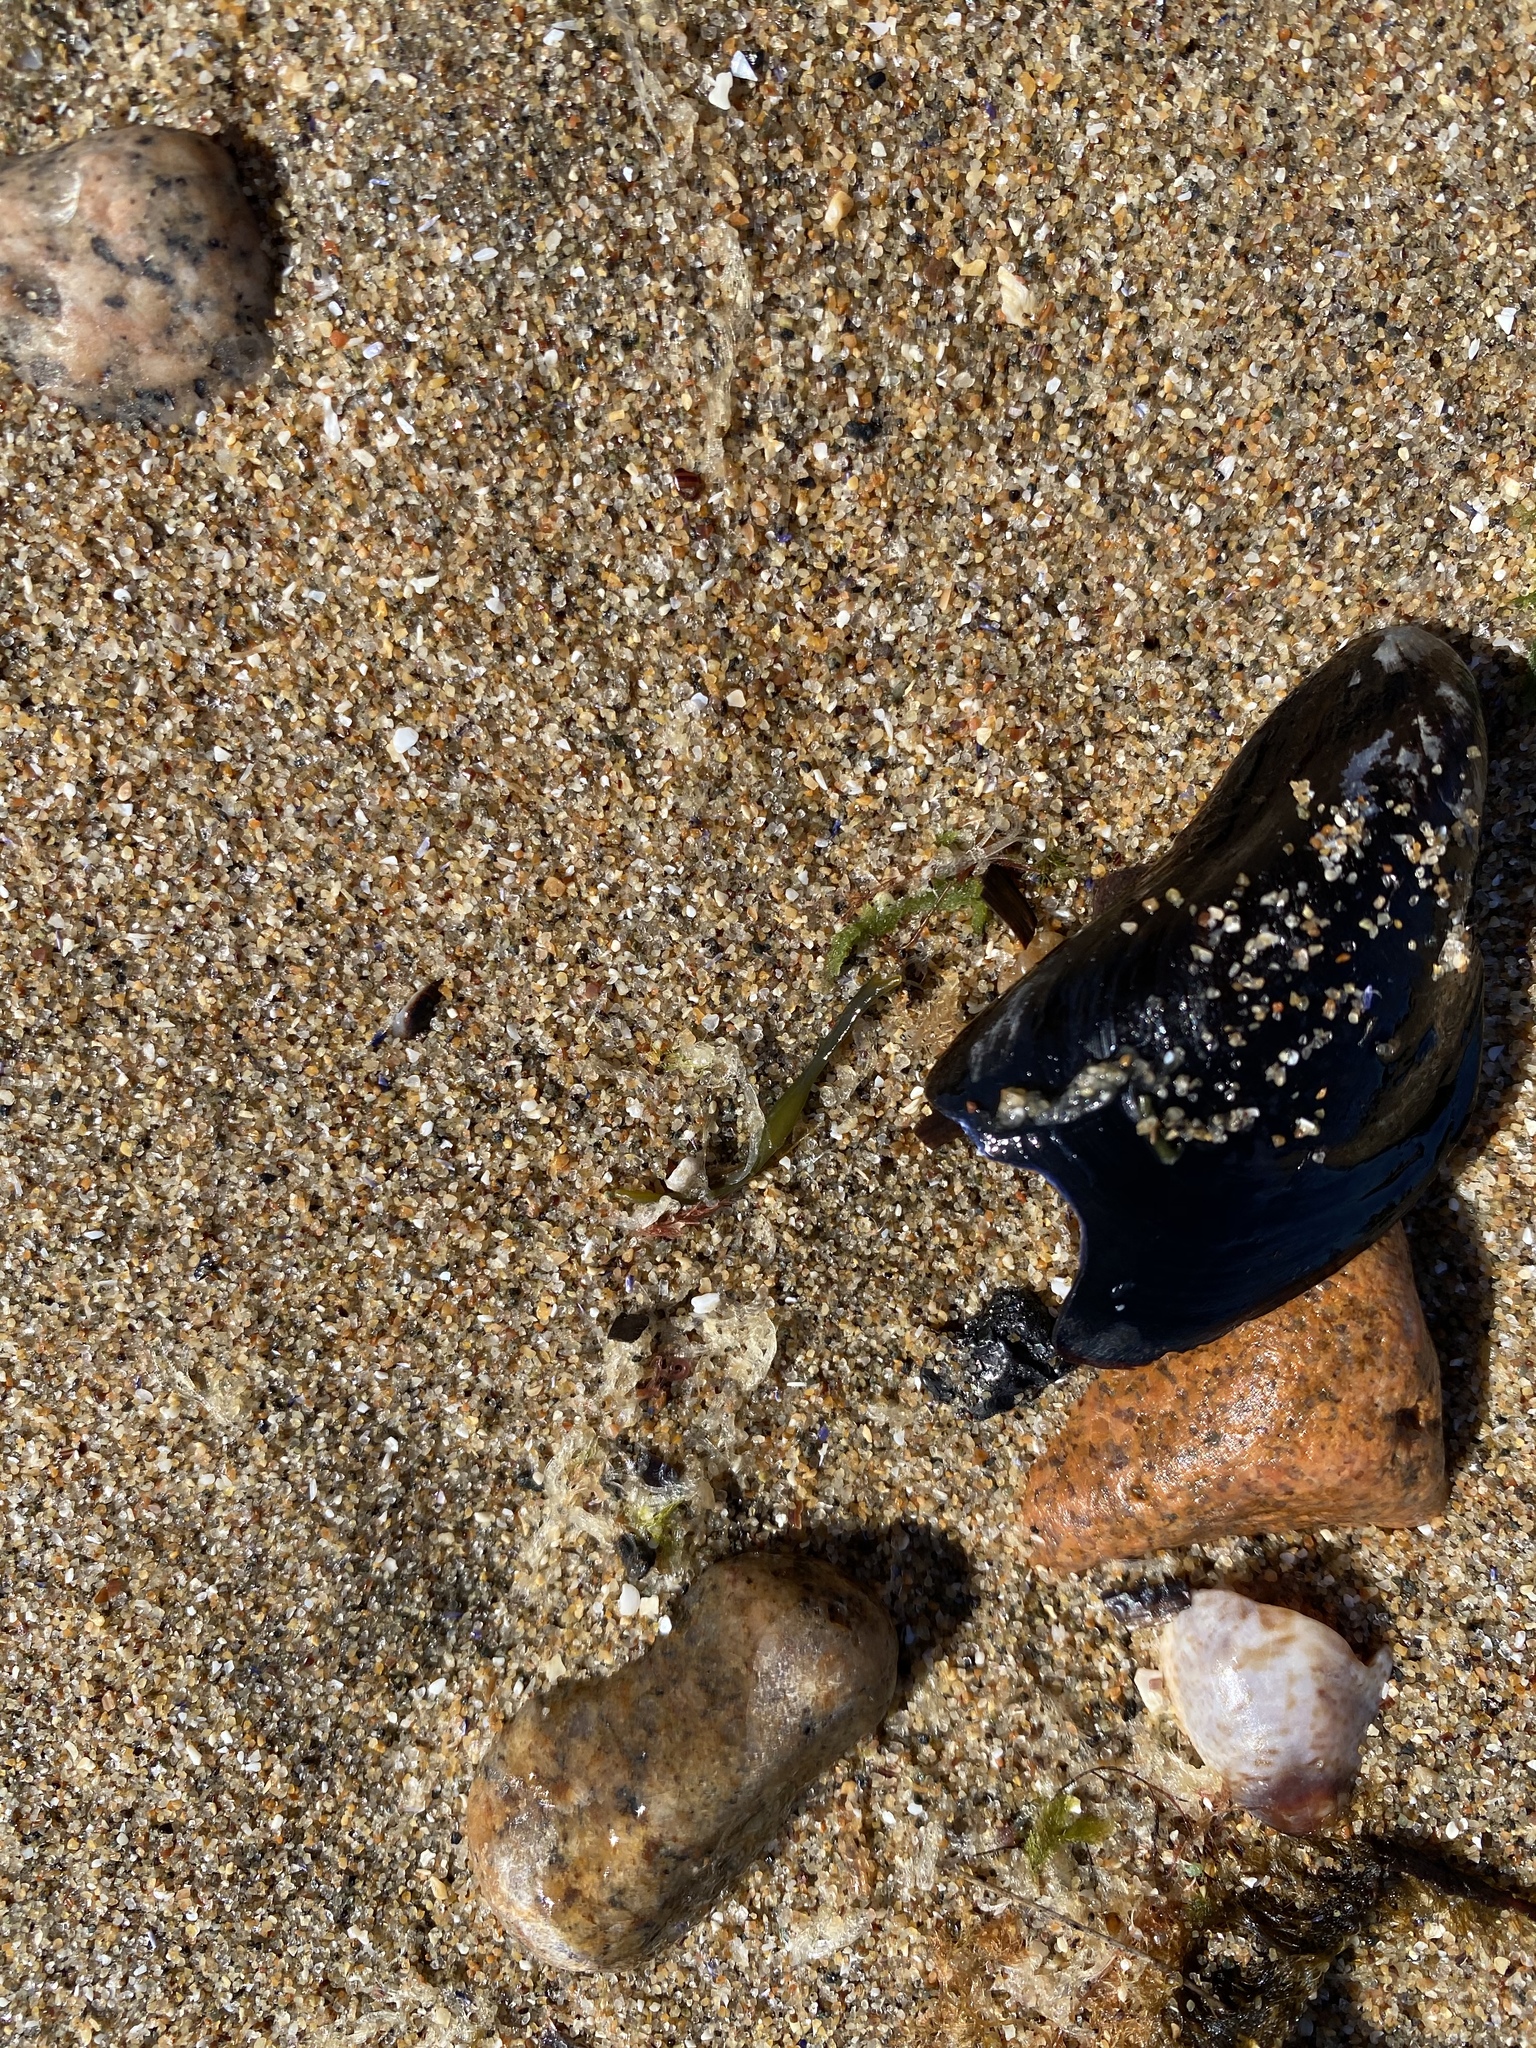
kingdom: Animalia
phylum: Mollusca
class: Bivalvia
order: Mytilida
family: Mytilidae
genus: Mytilus
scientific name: Mytilus edulis
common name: Blue mussel
